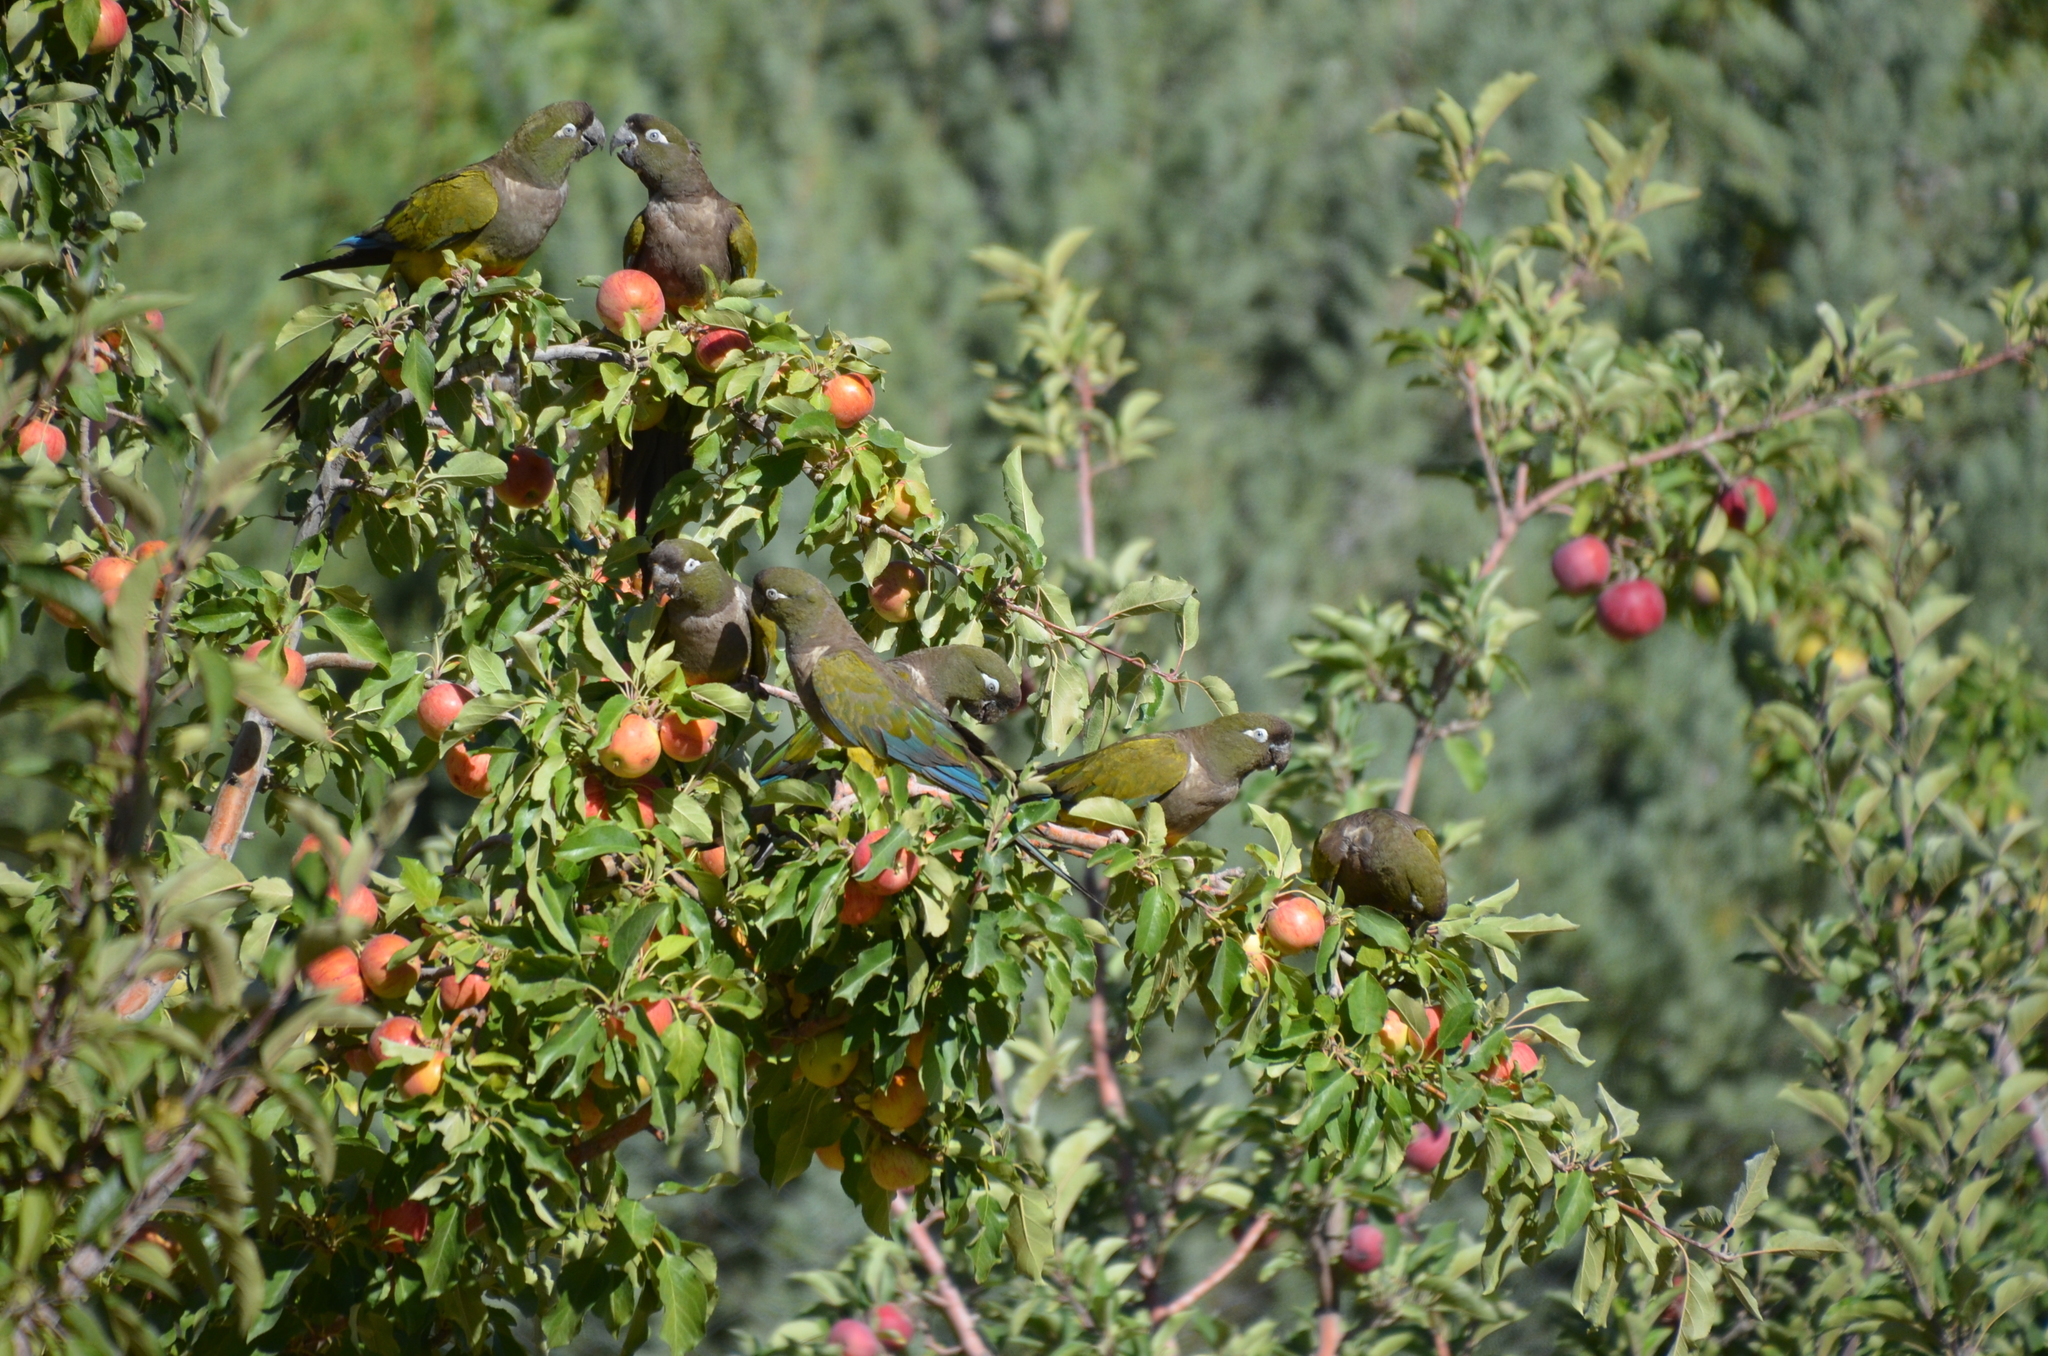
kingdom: Animalia
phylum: Chordata
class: Aves
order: Psittaciformes
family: Psittacidae
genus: Cyanoliseus
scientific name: Cyanoliseus patagonus
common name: Burrowing parrot
